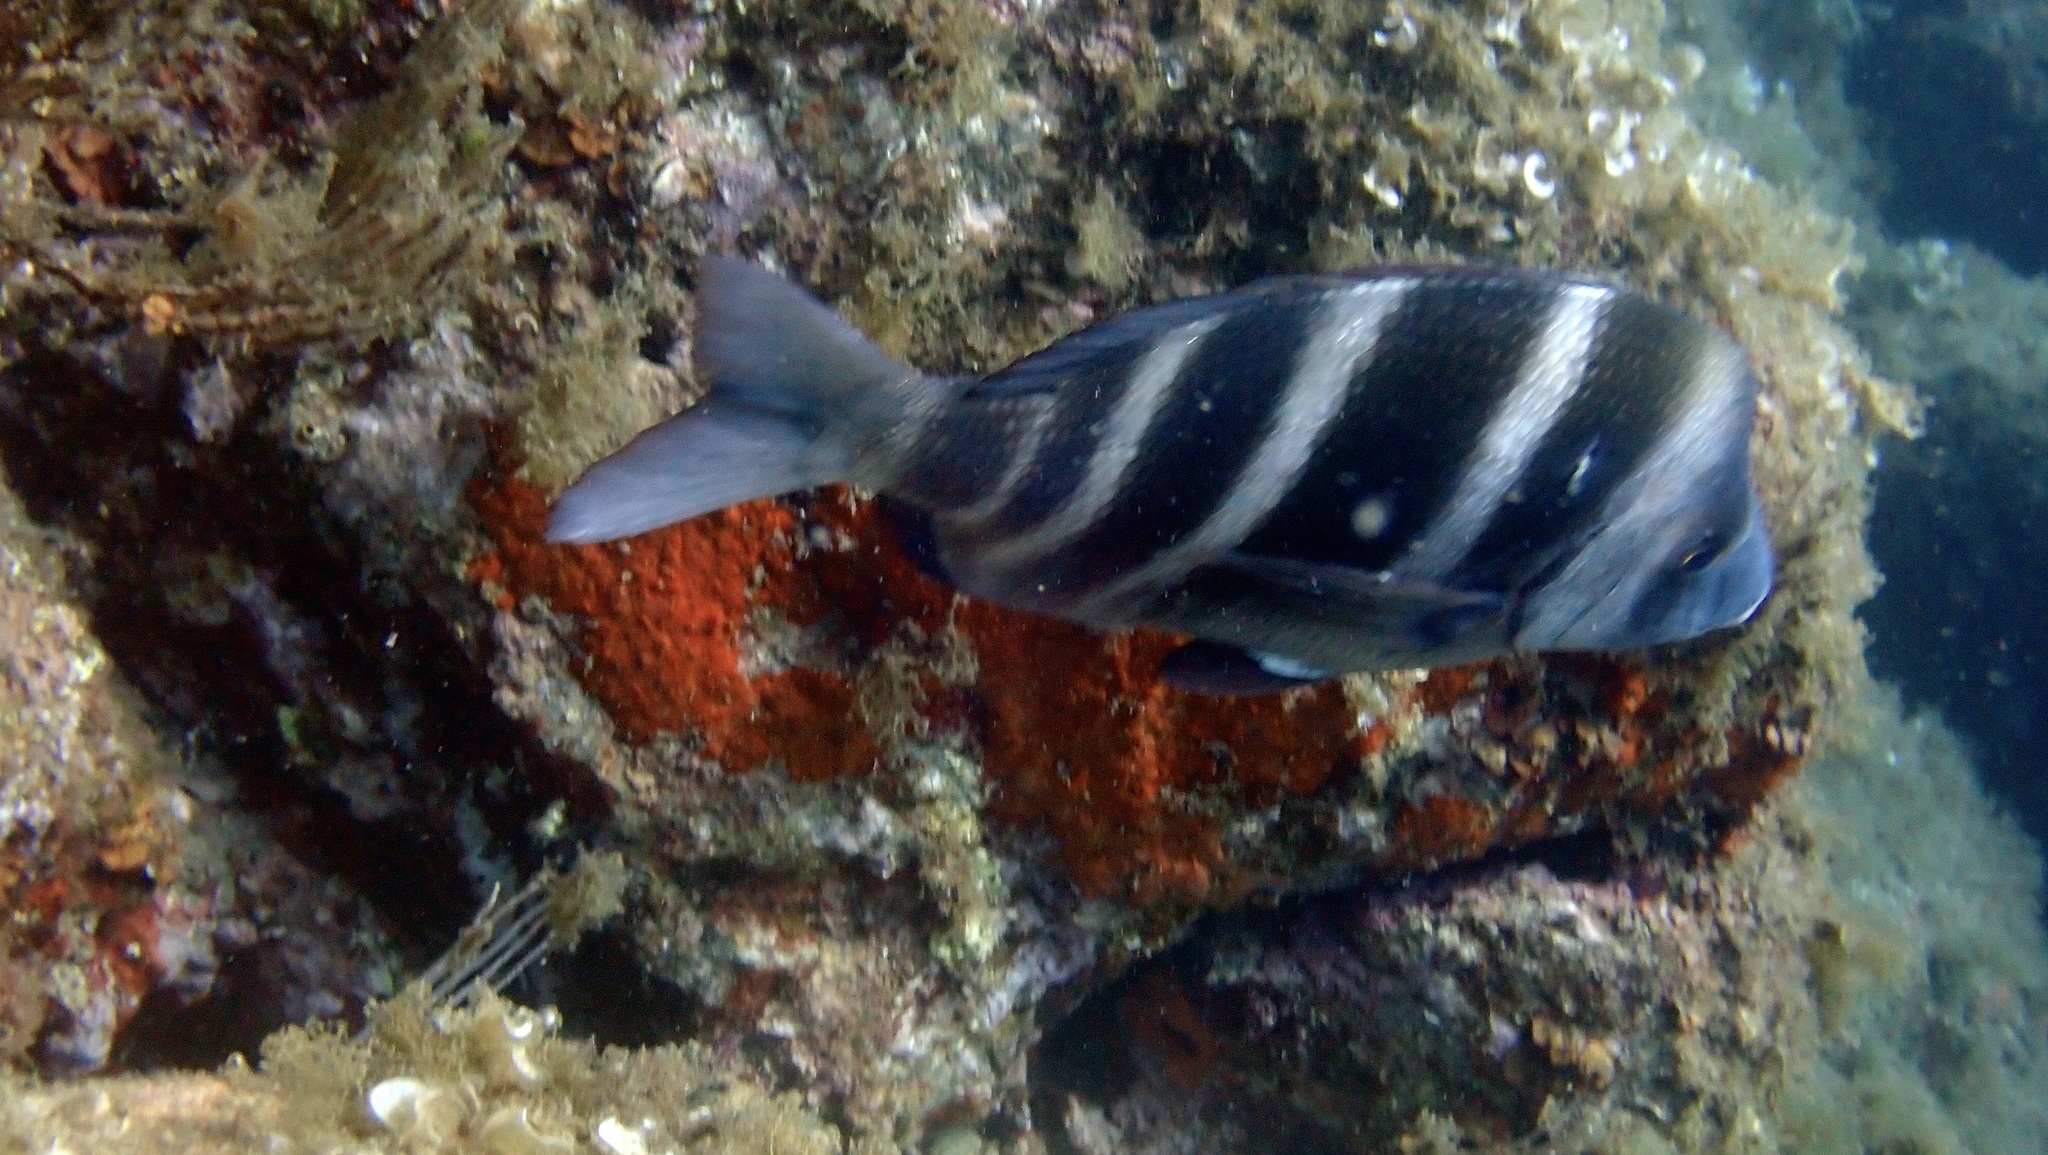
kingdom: Animalia
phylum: Chordata
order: Perciformes
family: Sparidae
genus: Diplodus
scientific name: Diplodus cervinus
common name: Oman porgy
